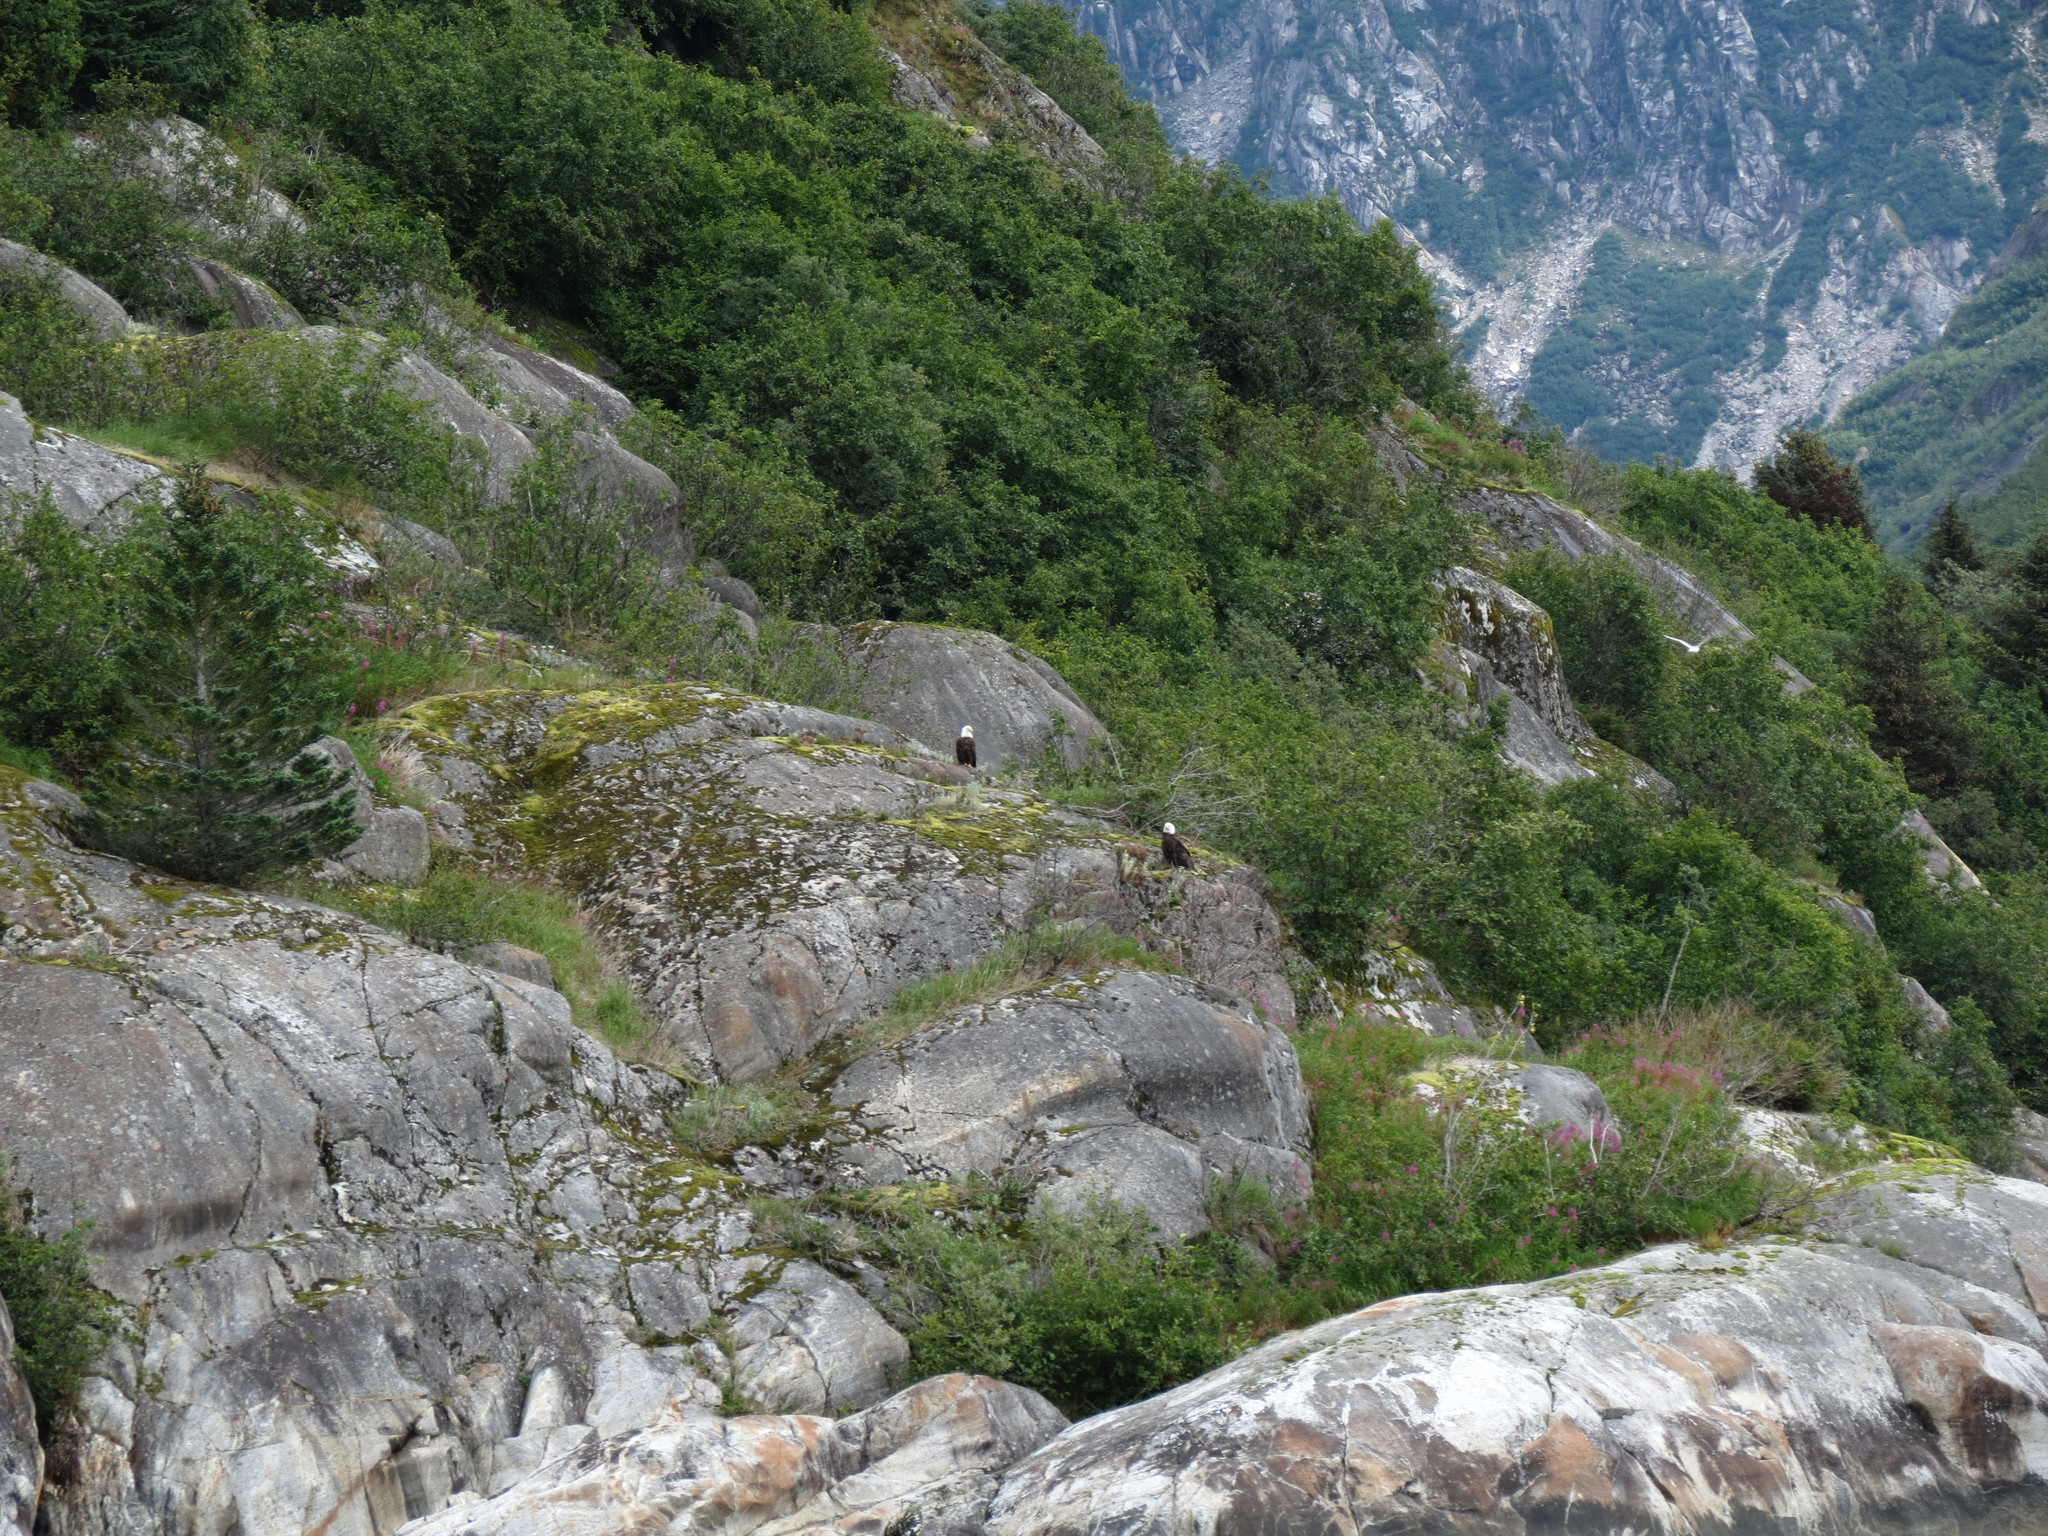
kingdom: Animalia
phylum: Chordata
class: Aves
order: Accipitriformes
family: Accipitridae
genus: Haliaeetus
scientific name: Haliaeetus leucocephalus
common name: Bald eagle
